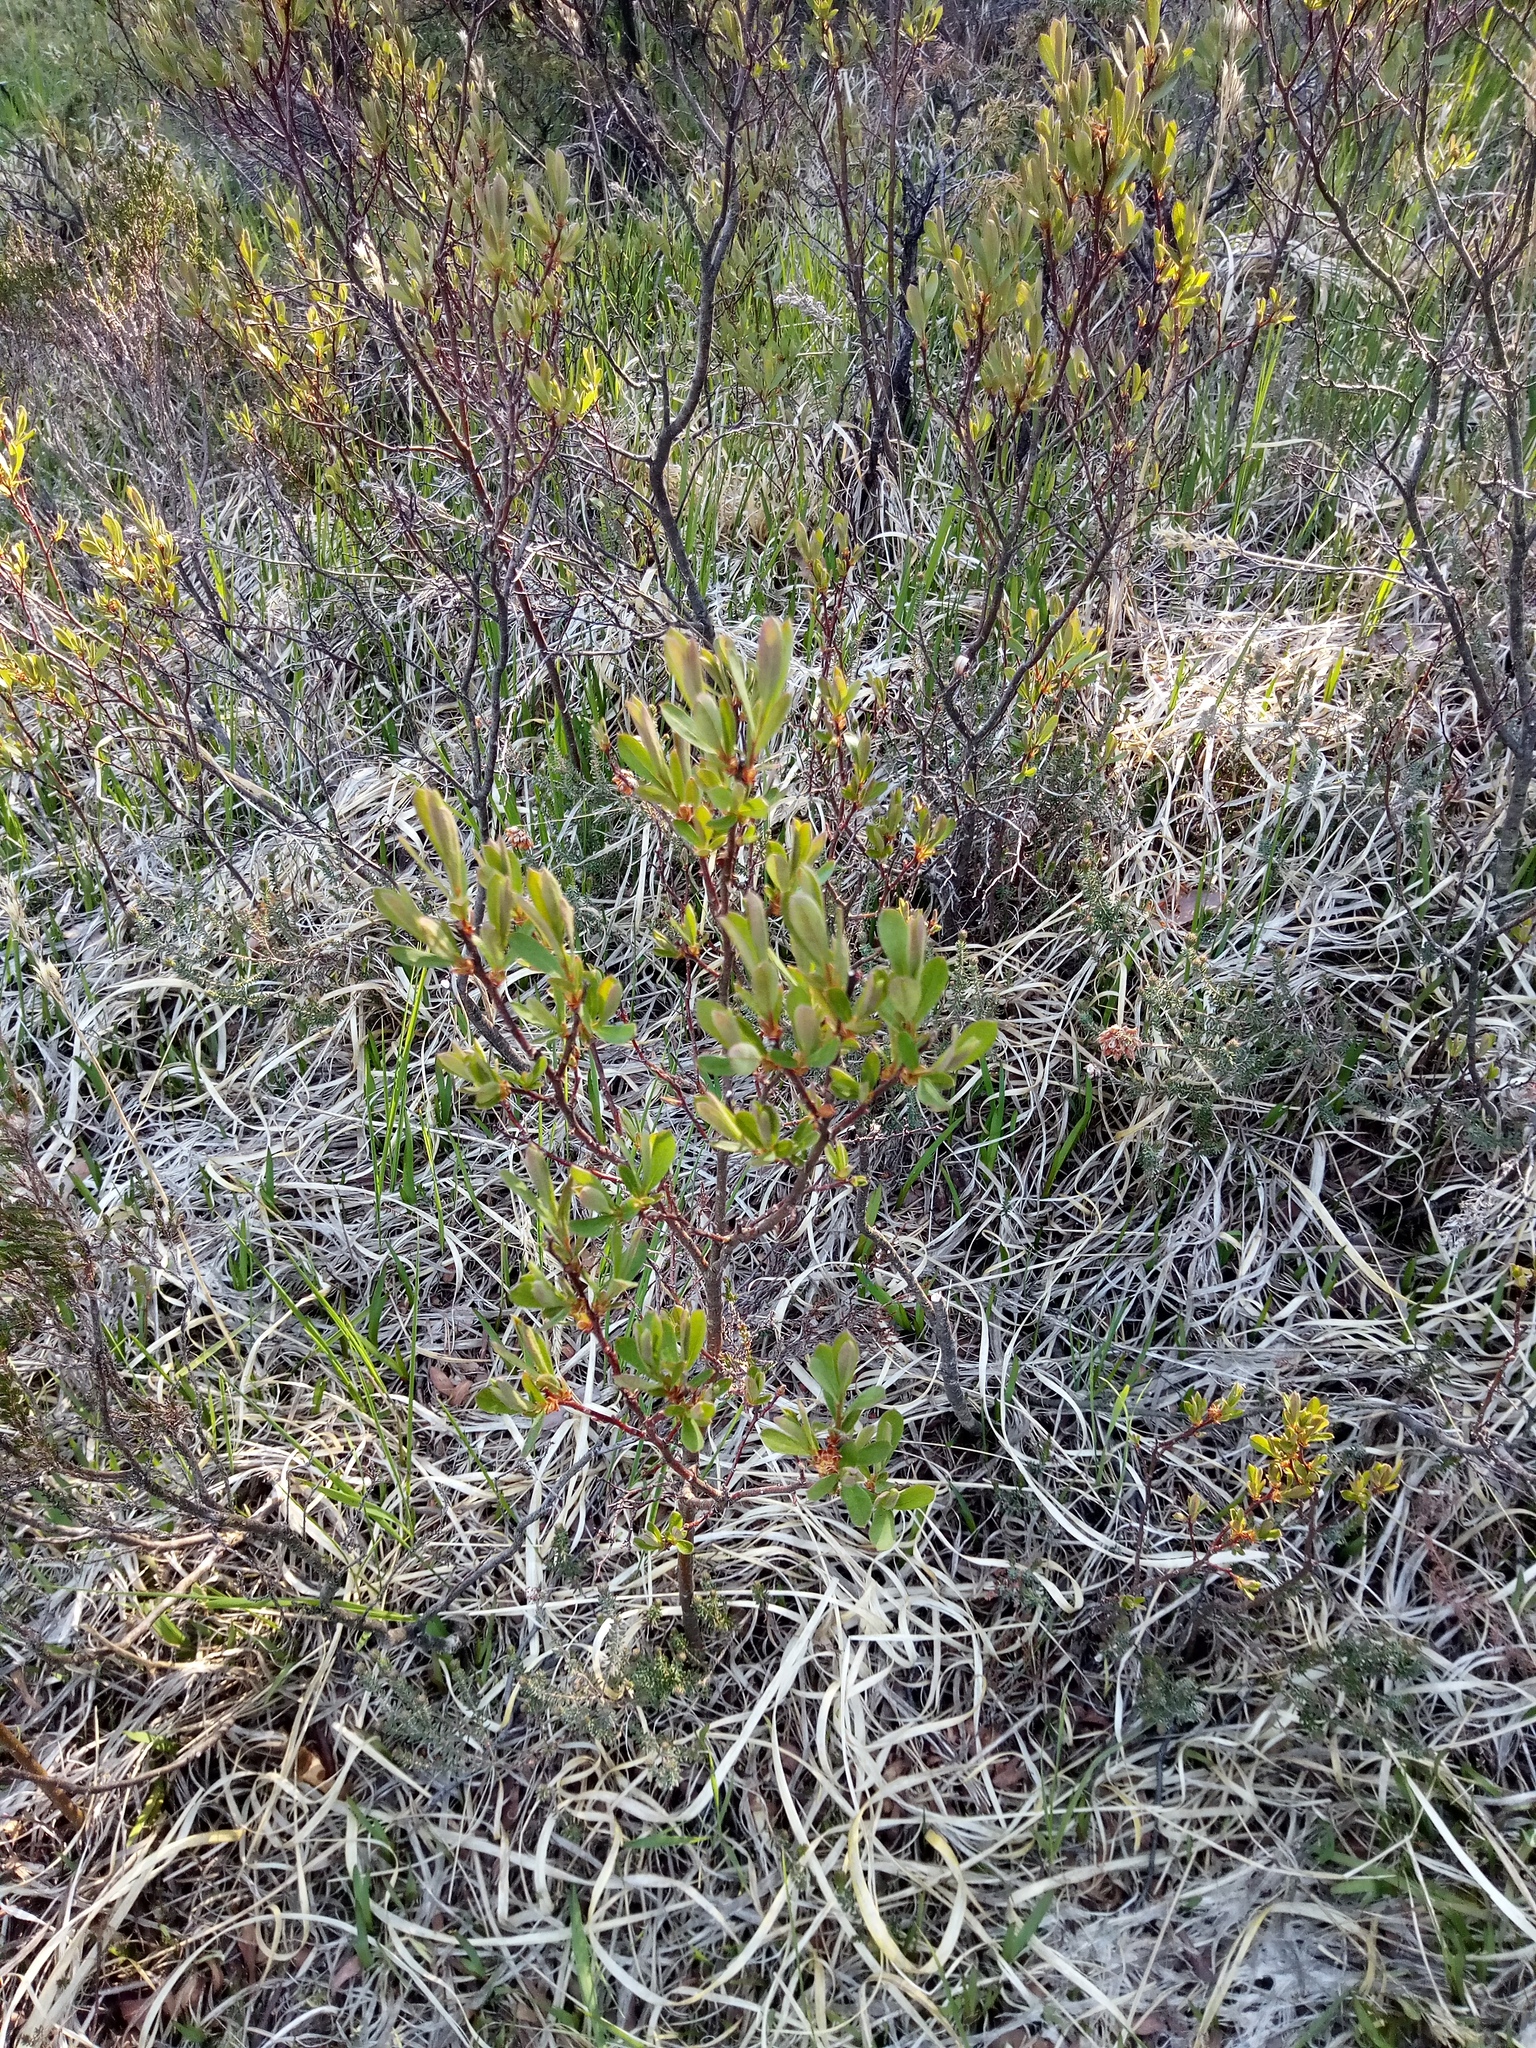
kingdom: Plantae
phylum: Tracheophyta
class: Magnoliopsida
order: Fagales
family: Myricaceae
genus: Myrica
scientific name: Myrica gale
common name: Sweet gale
